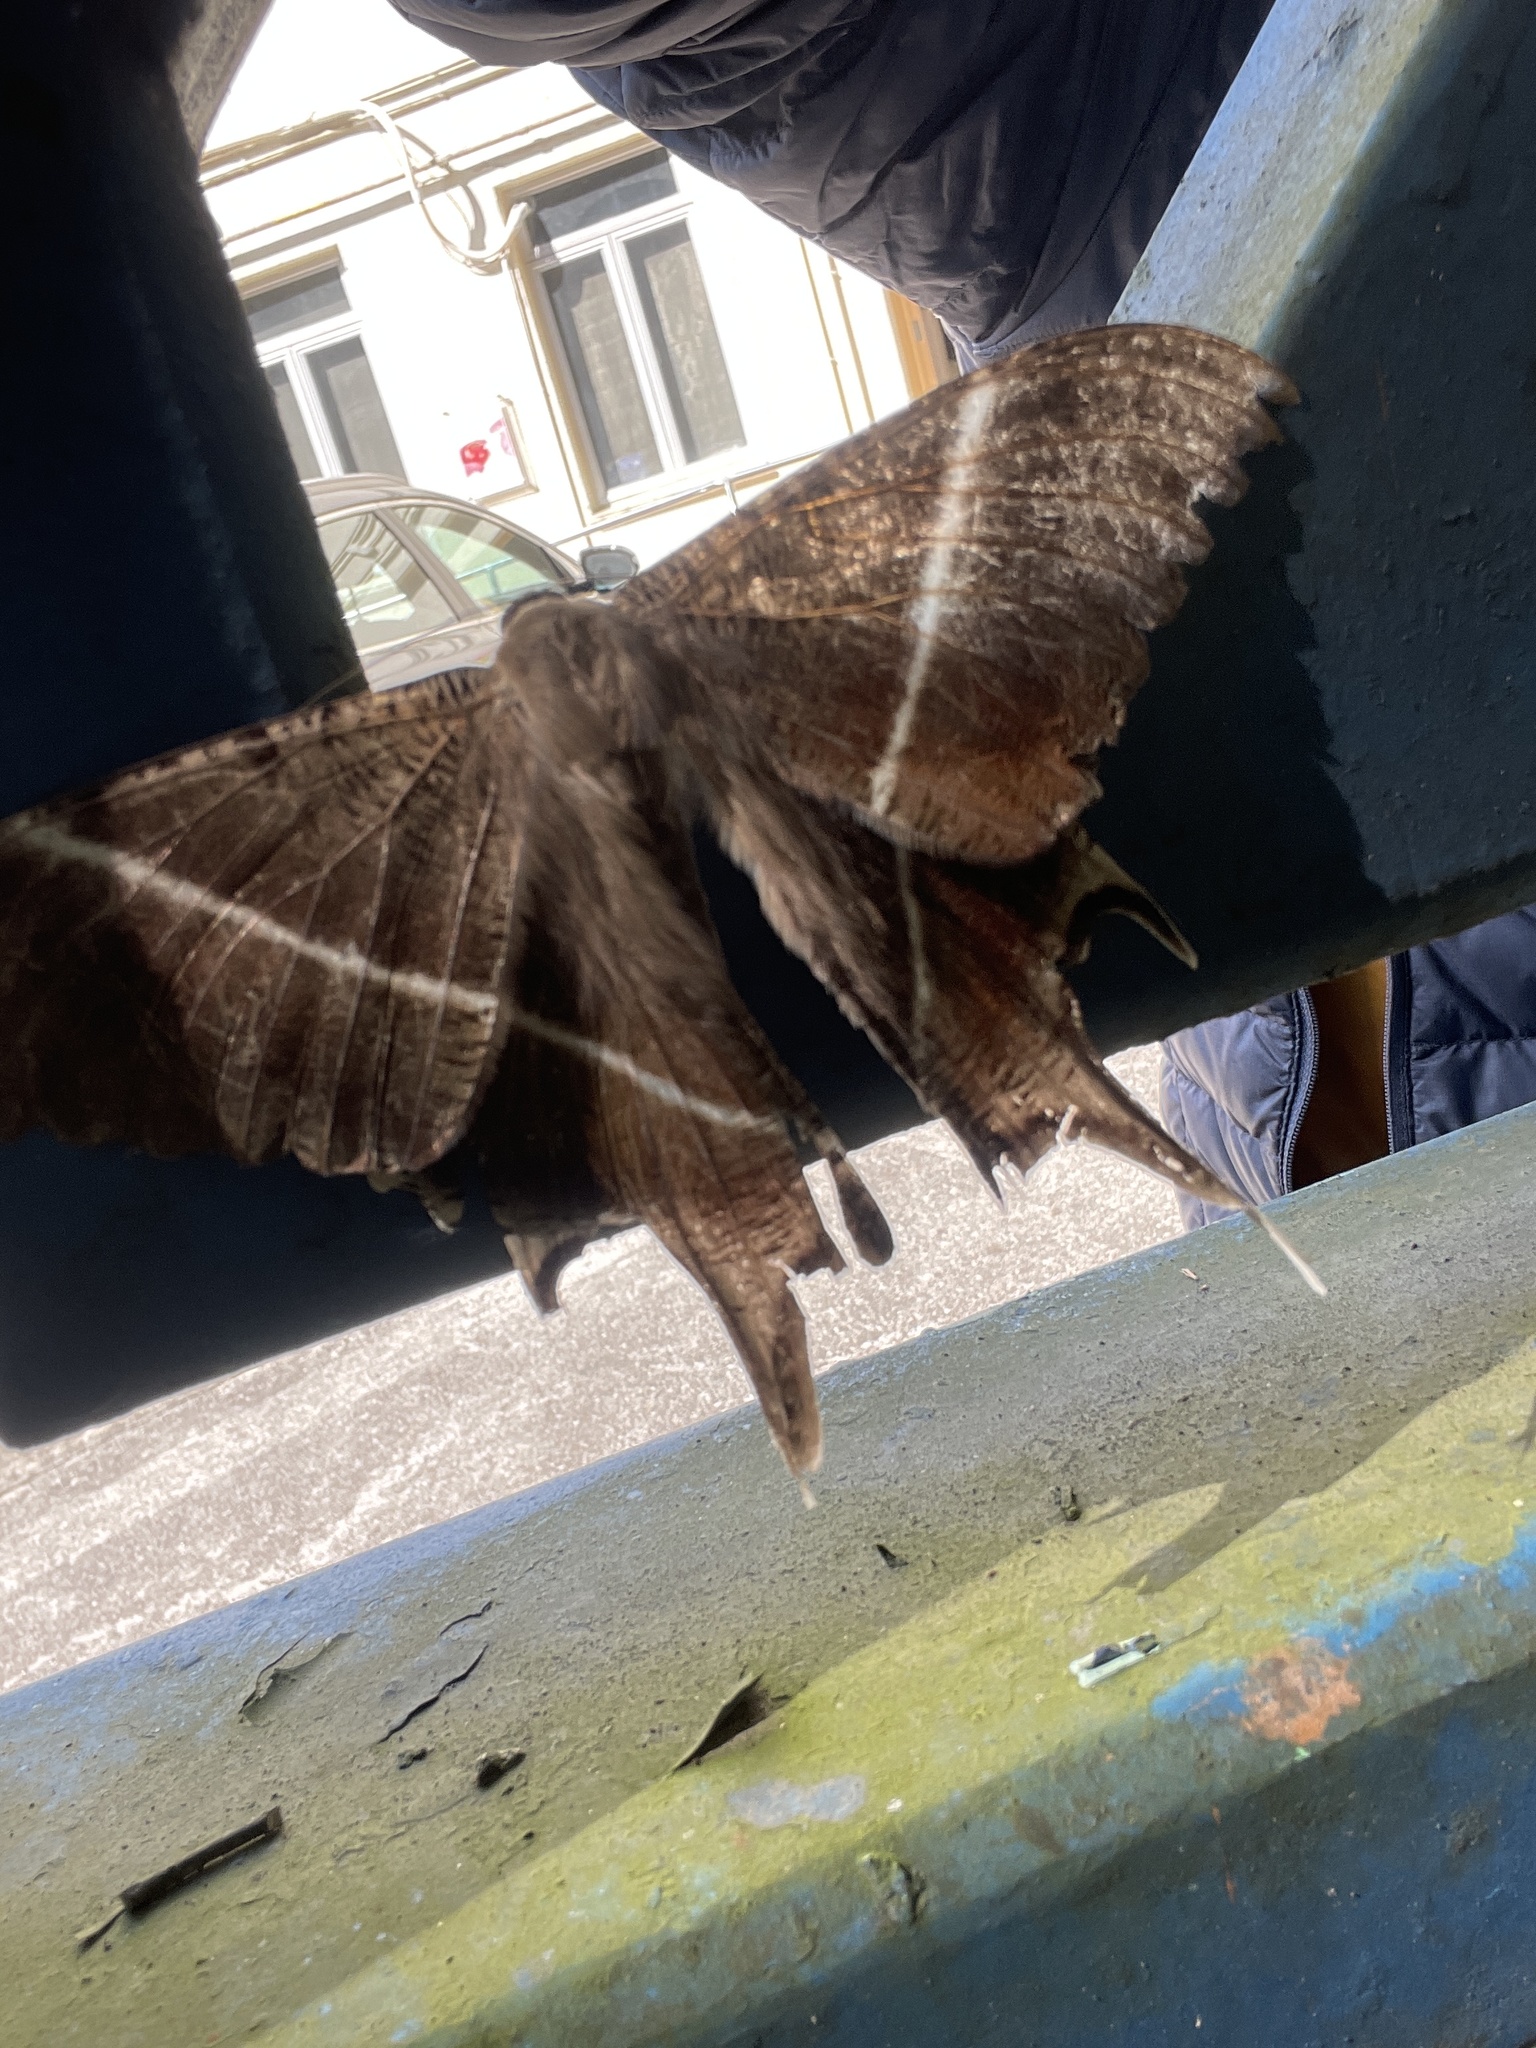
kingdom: Animalia
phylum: Arthropoda
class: Insecta
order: Lepidoptera
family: Uraniidae
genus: Lyssa
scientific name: Lyssa zampa
